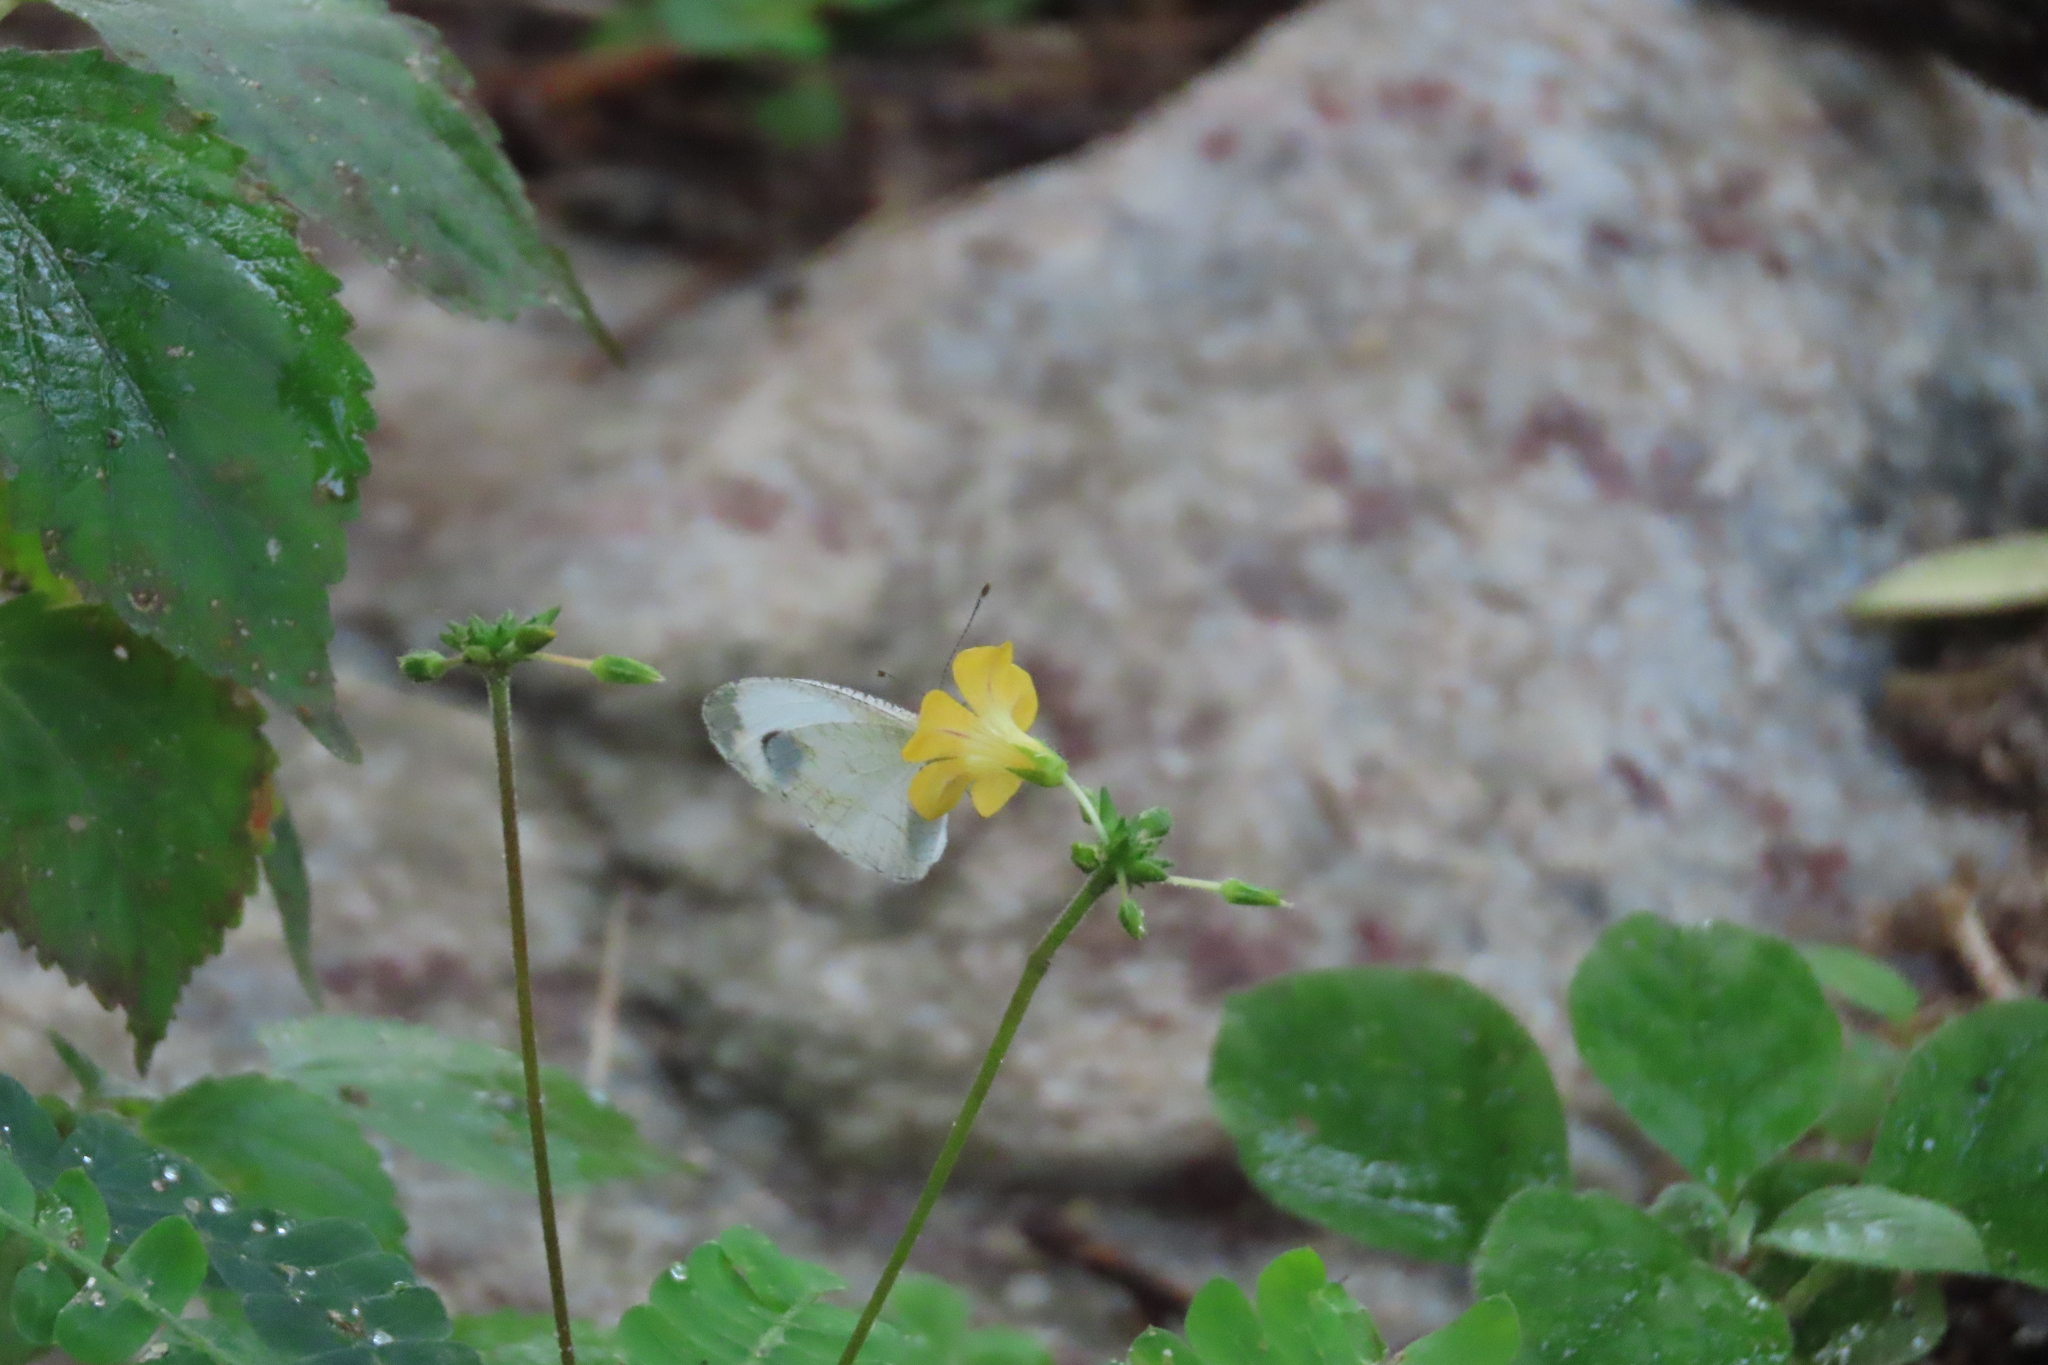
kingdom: Animalia
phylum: Arthropoda
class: Insecta
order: Lepidoptera
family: Pieridae
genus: Leptosia
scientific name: Leptosia nina
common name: Psyche
